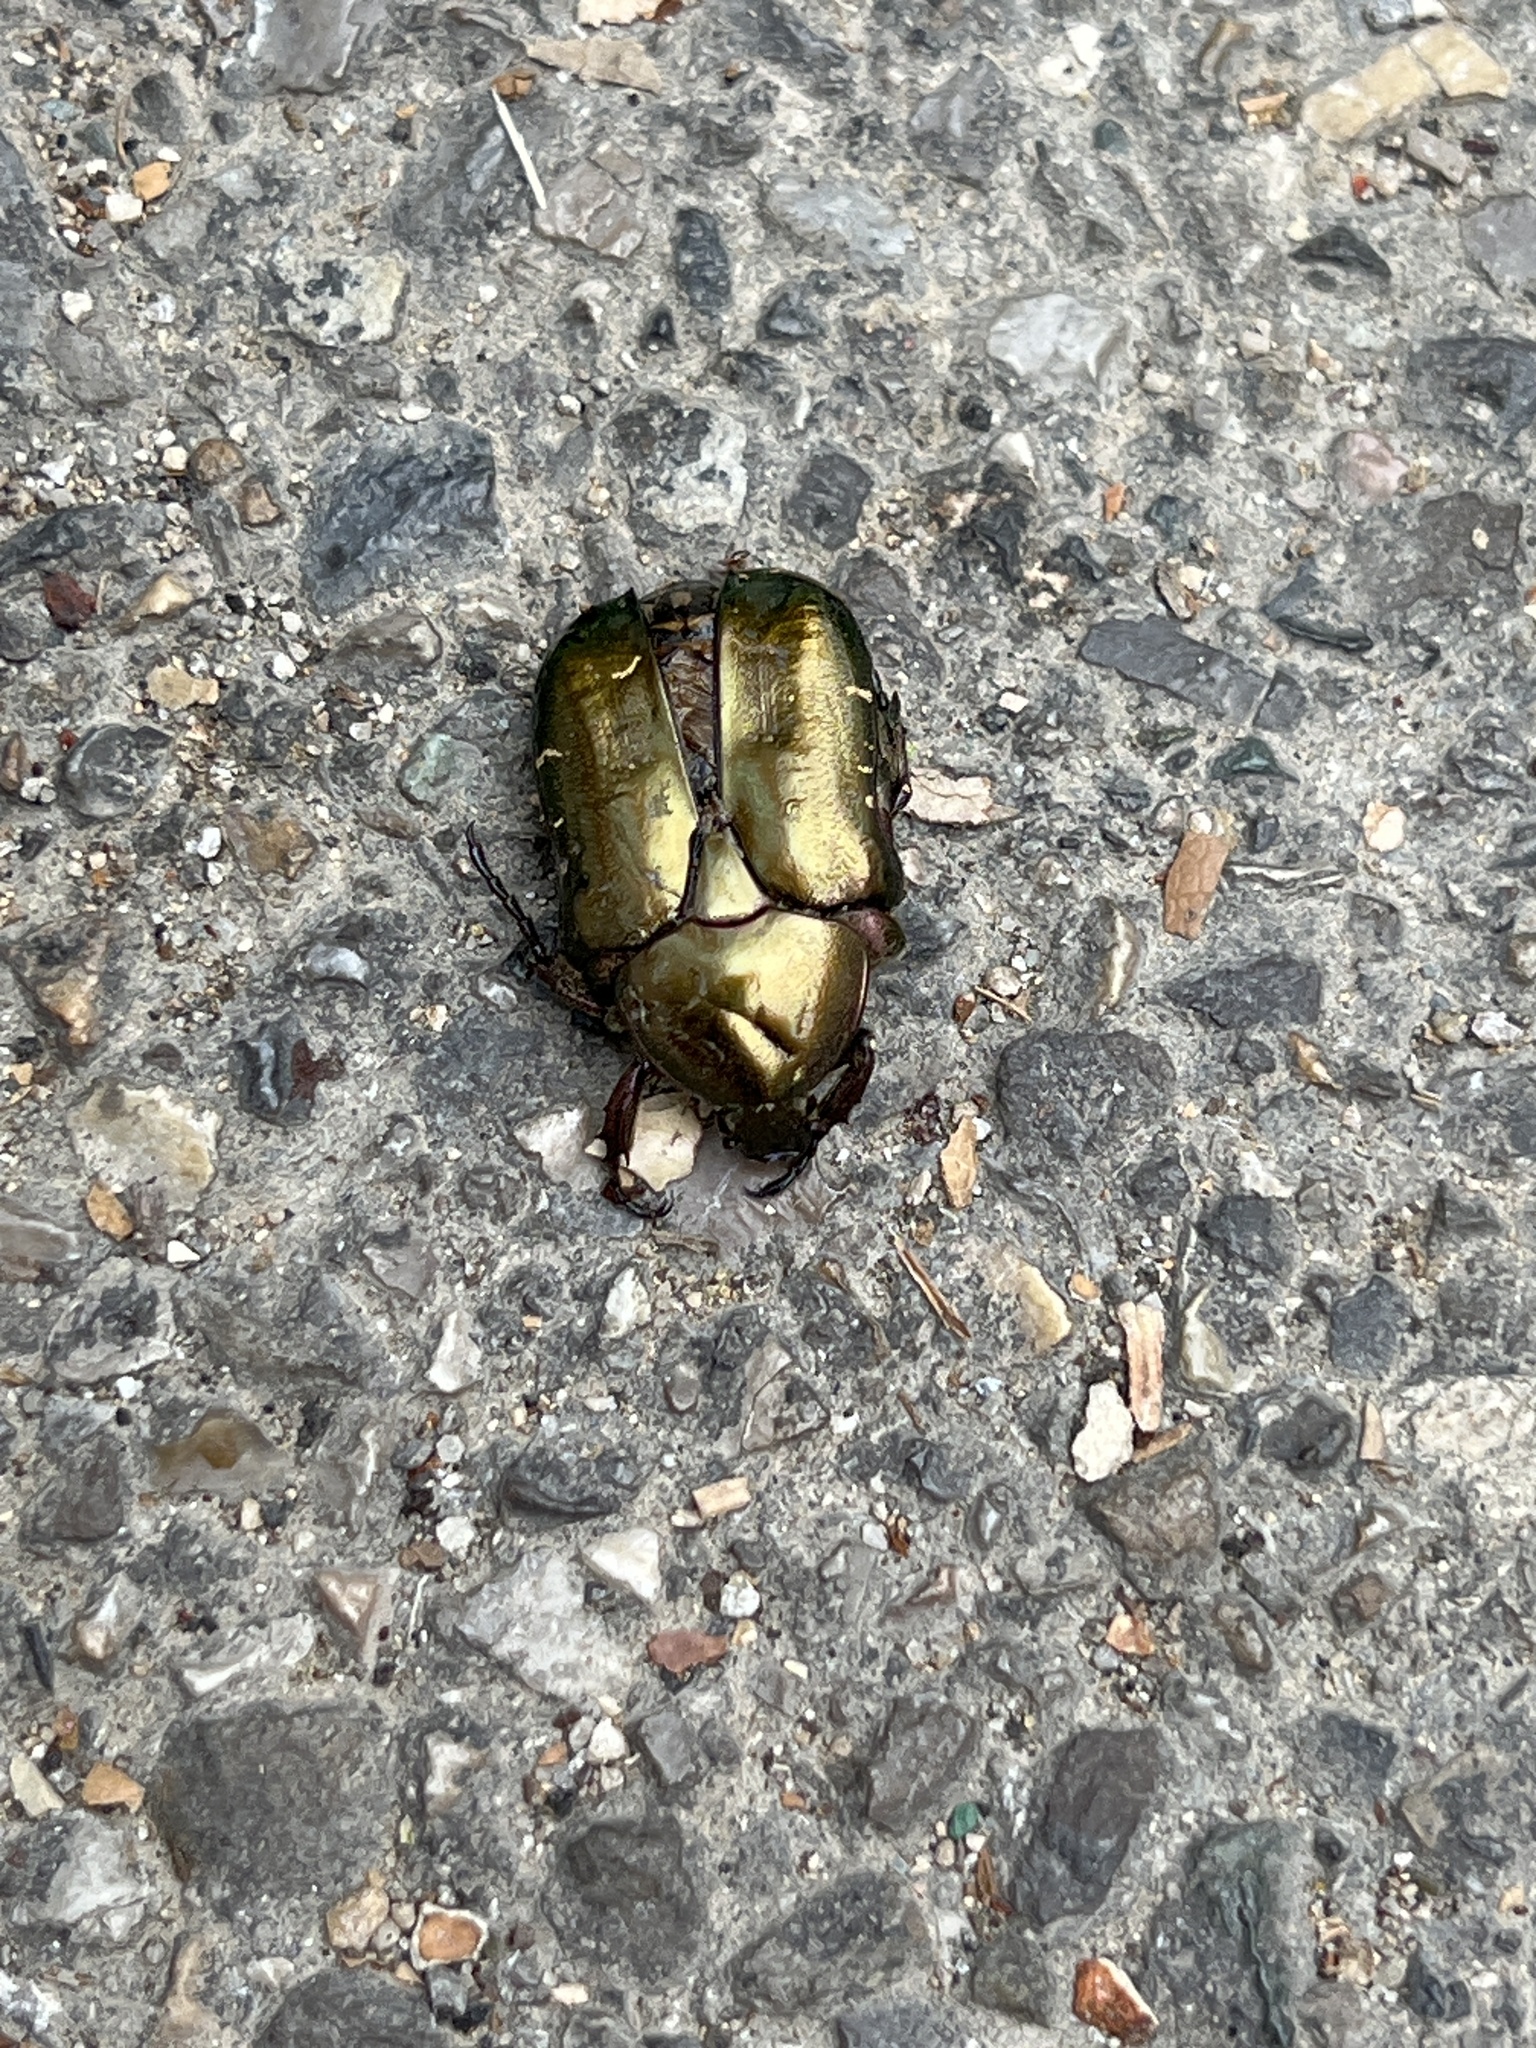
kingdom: Animalia
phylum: Arthropoda
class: Insecta
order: Coleoptera
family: Scarabaeidae
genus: Protaetia
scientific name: Protaetia cuprea
